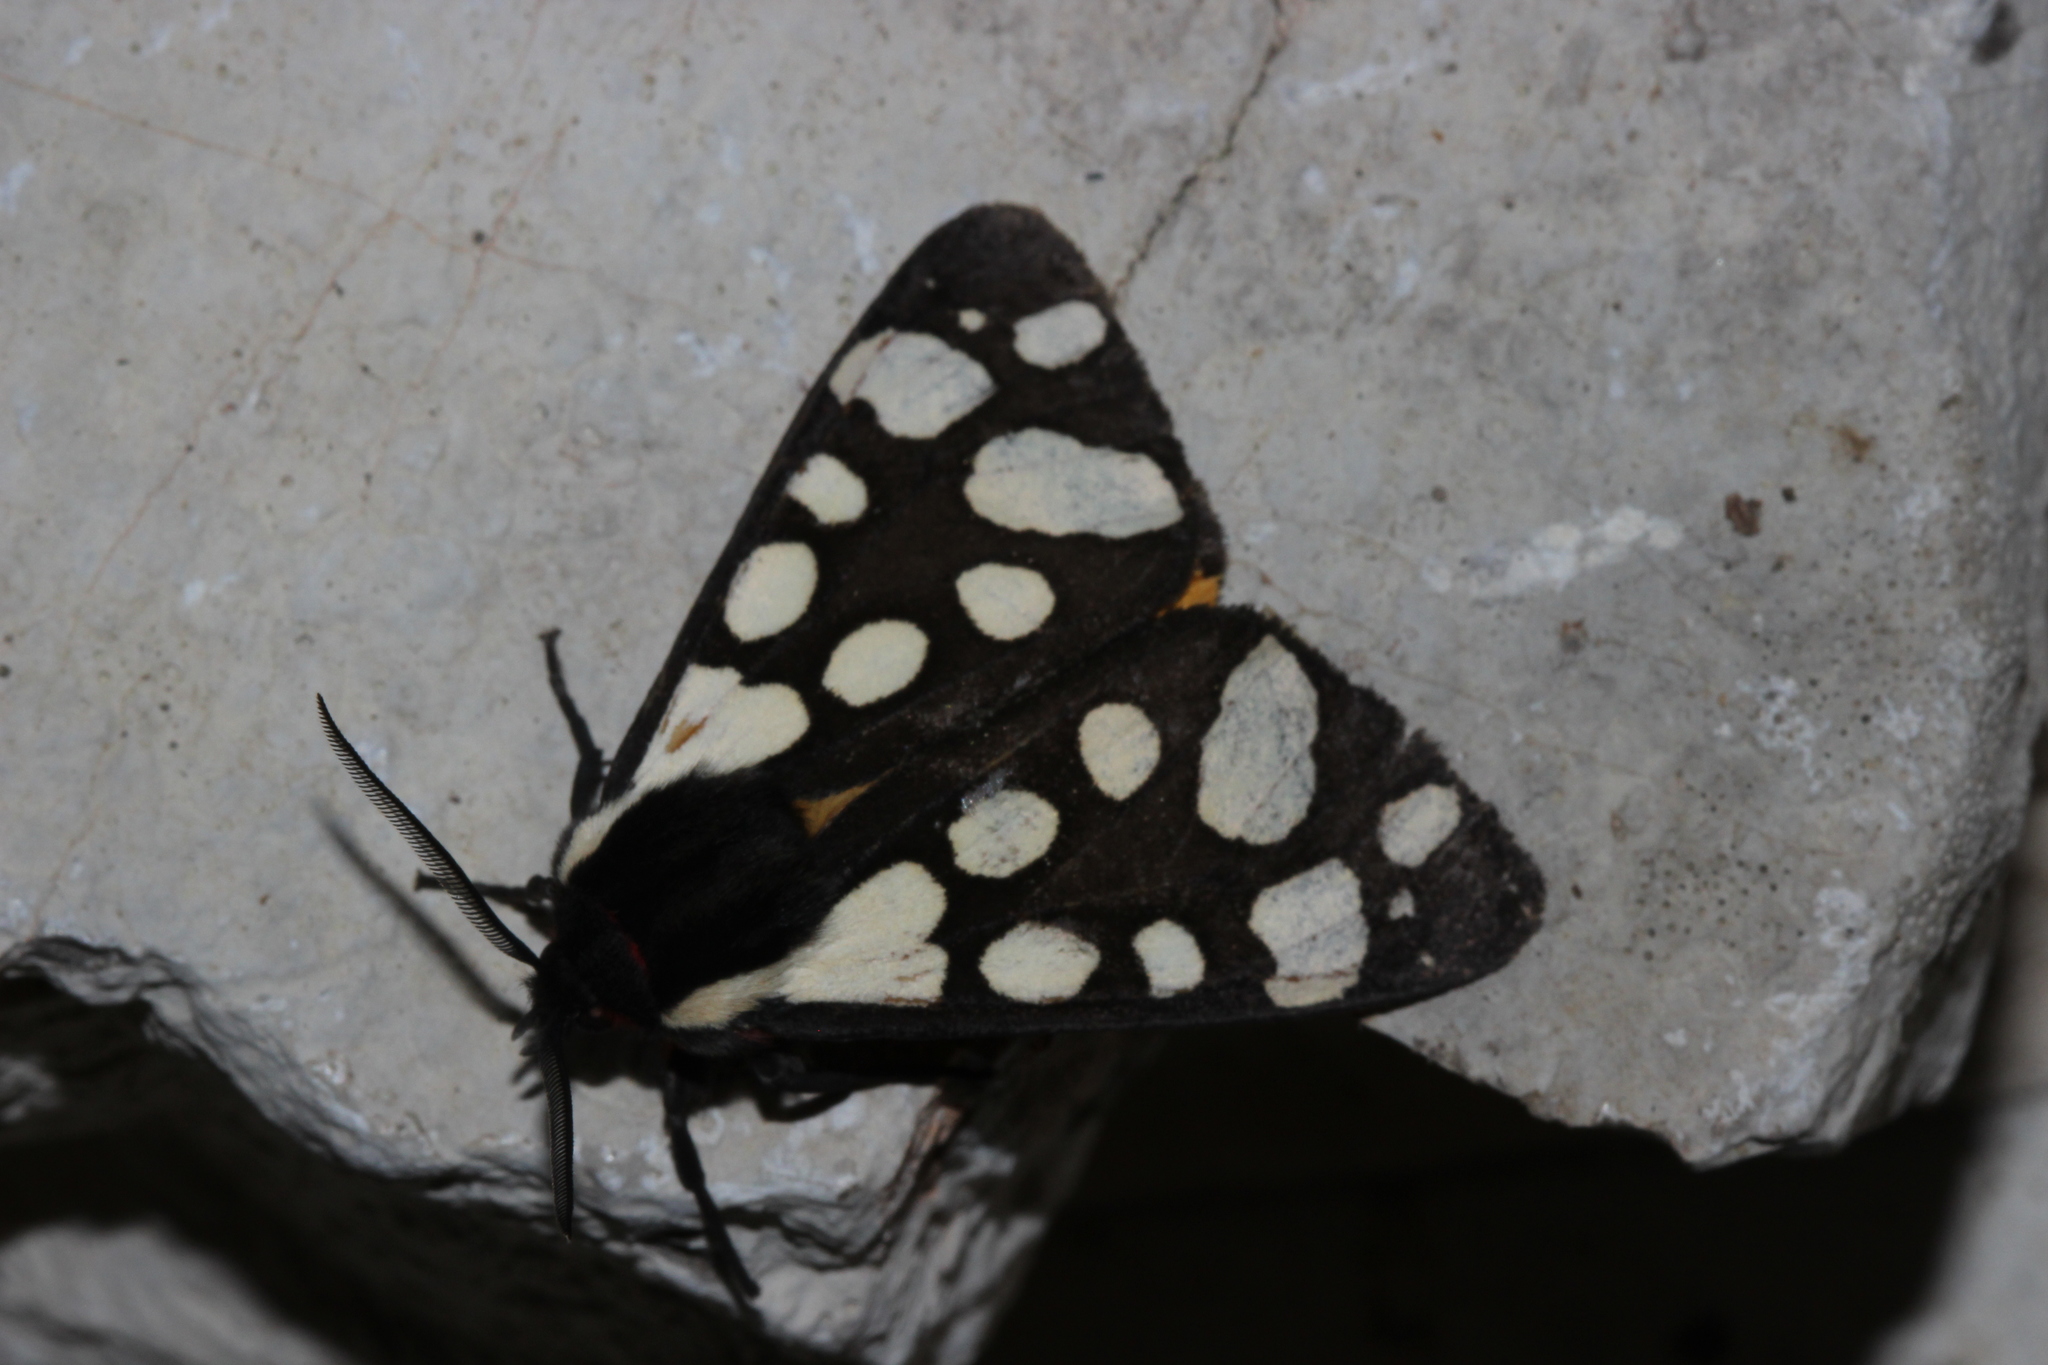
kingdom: Animalia
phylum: Arthropoda
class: Insecta
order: Lepidoptera
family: Erebidae
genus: Epicallia
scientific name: Epicallia villica
